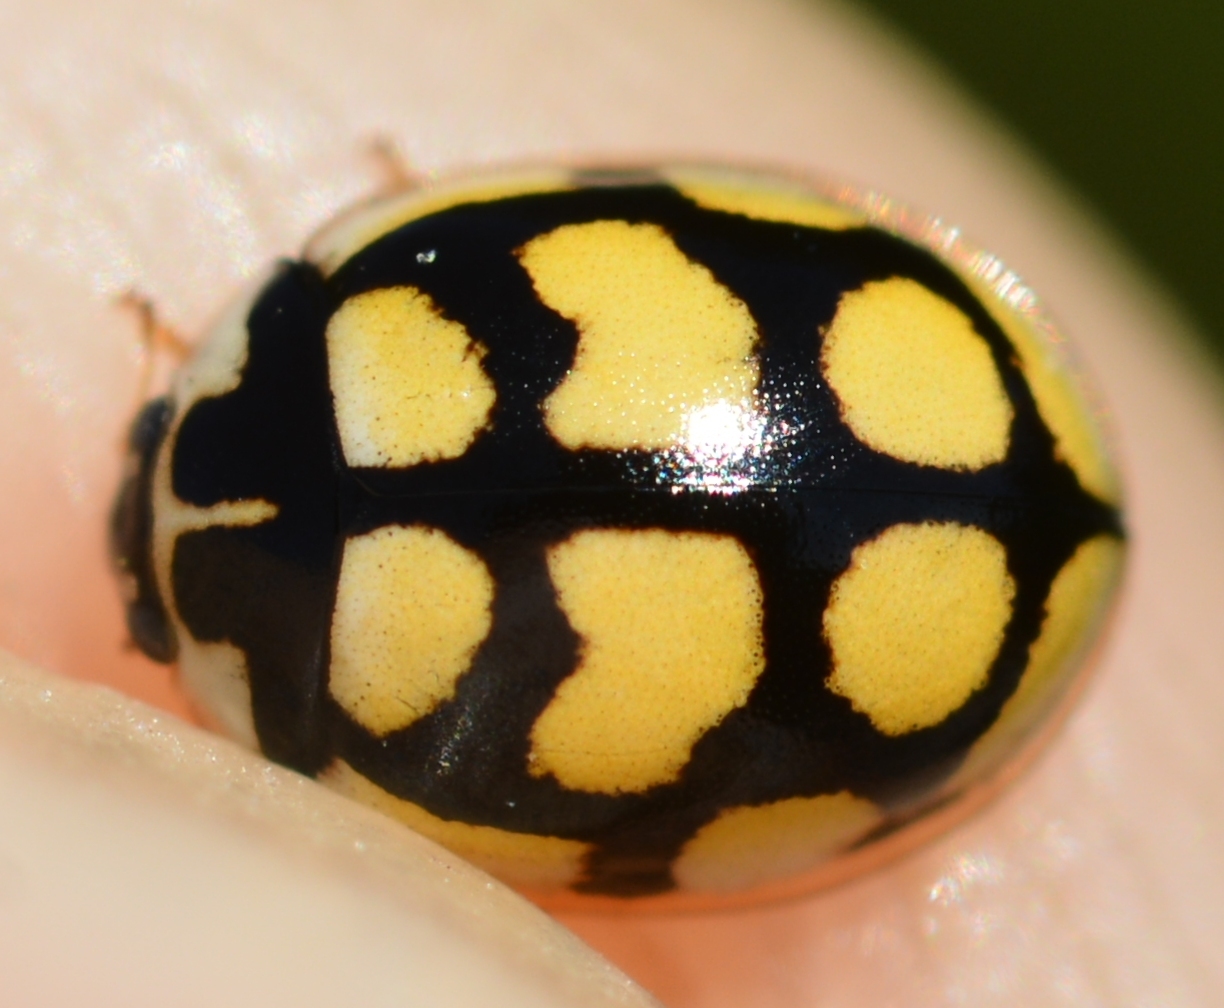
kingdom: Animalia
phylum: Arthropoda
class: Insecta
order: Coleoptera
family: Coccinellidae
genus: Oenopia
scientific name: Oenopia lyncea
